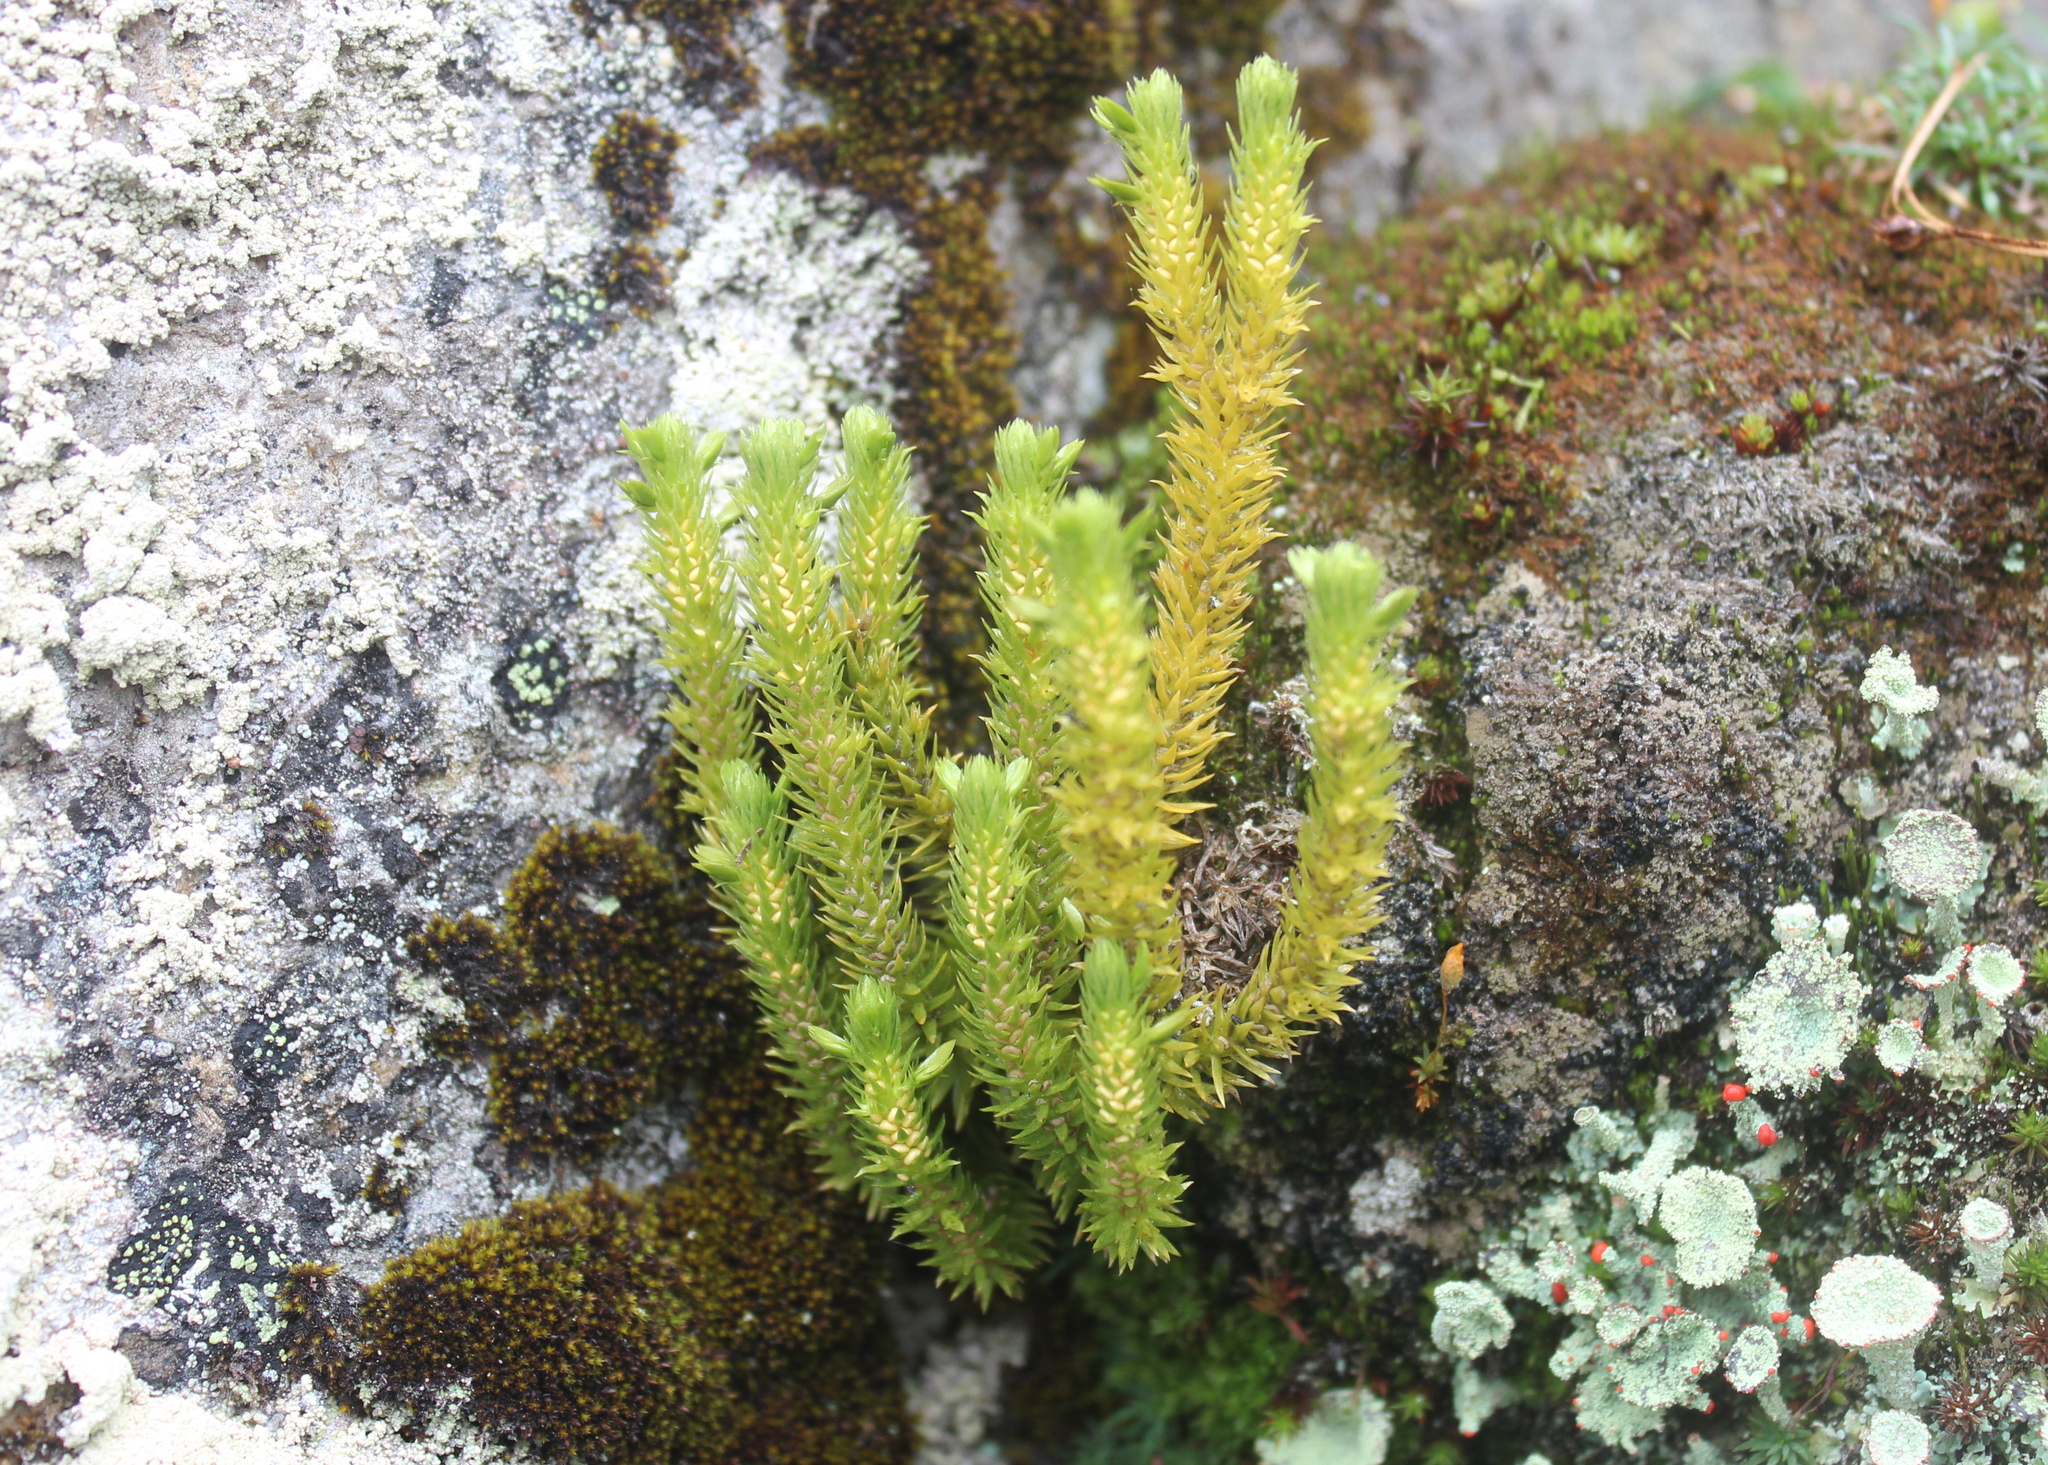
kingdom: Plantae
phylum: Tracheophyta
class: Lycopodiopsida
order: Lycopodiales
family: Lycopodiaceae
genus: Huperzia
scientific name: Huperzia selago
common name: Northern firmoss
